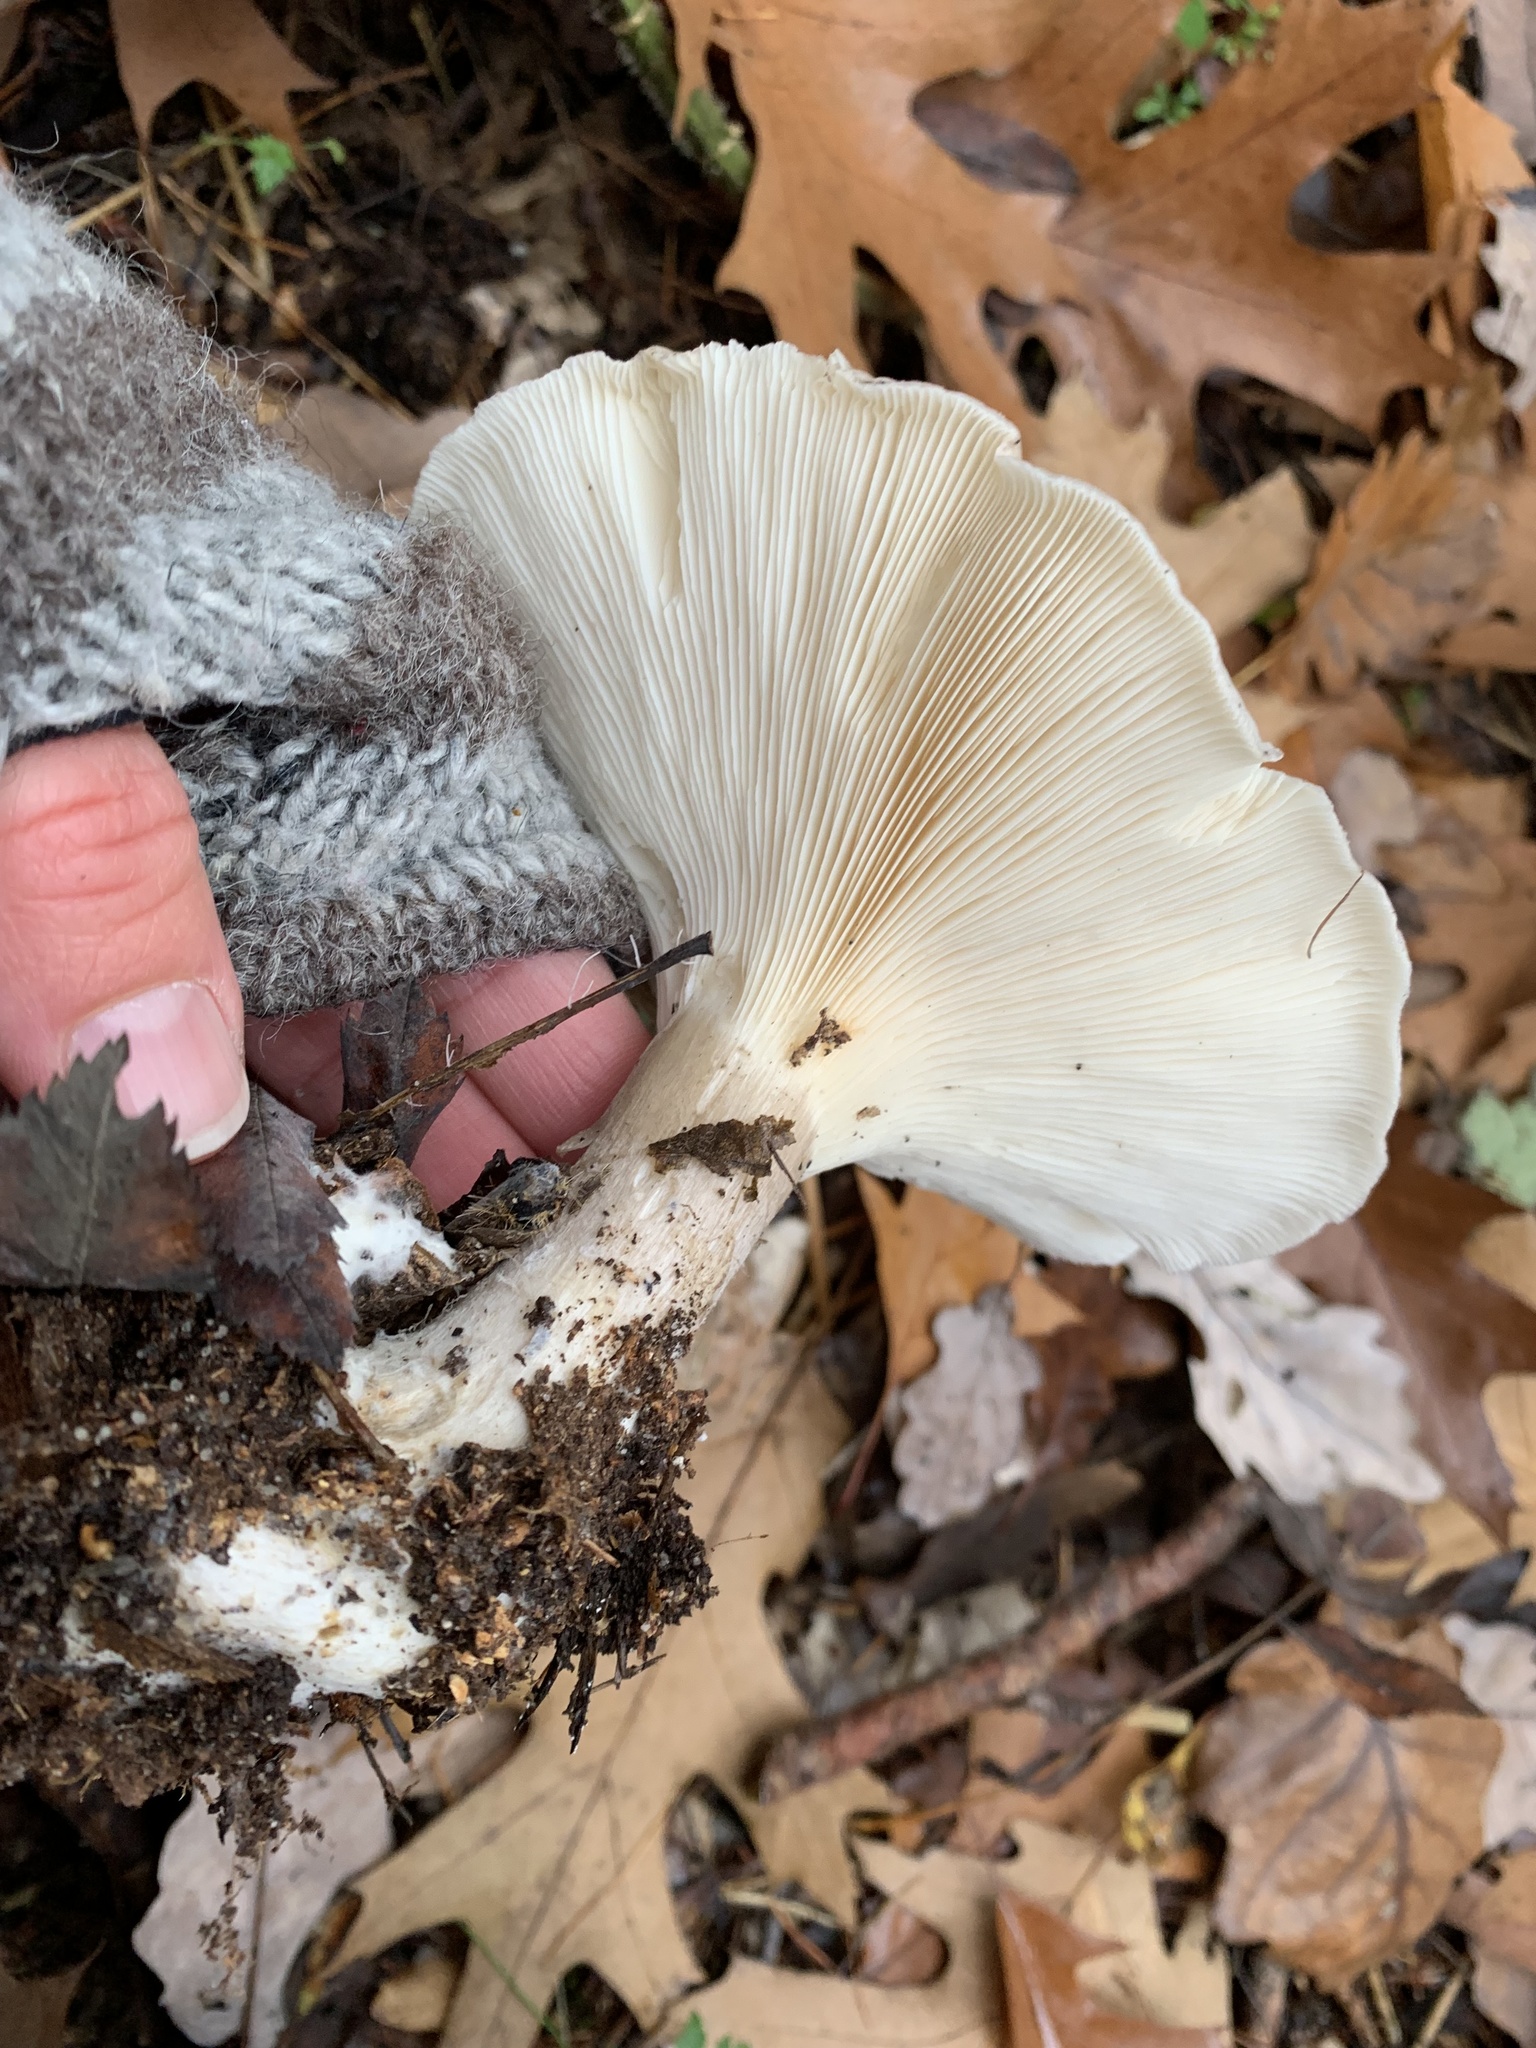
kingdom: Fungi
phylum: Basidiomycota
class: Agaricomycetes
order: Agaricales
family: Tricholomataceae
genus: Clitocybe
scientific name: Clitocybe nebularis
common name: Clouded agaric
